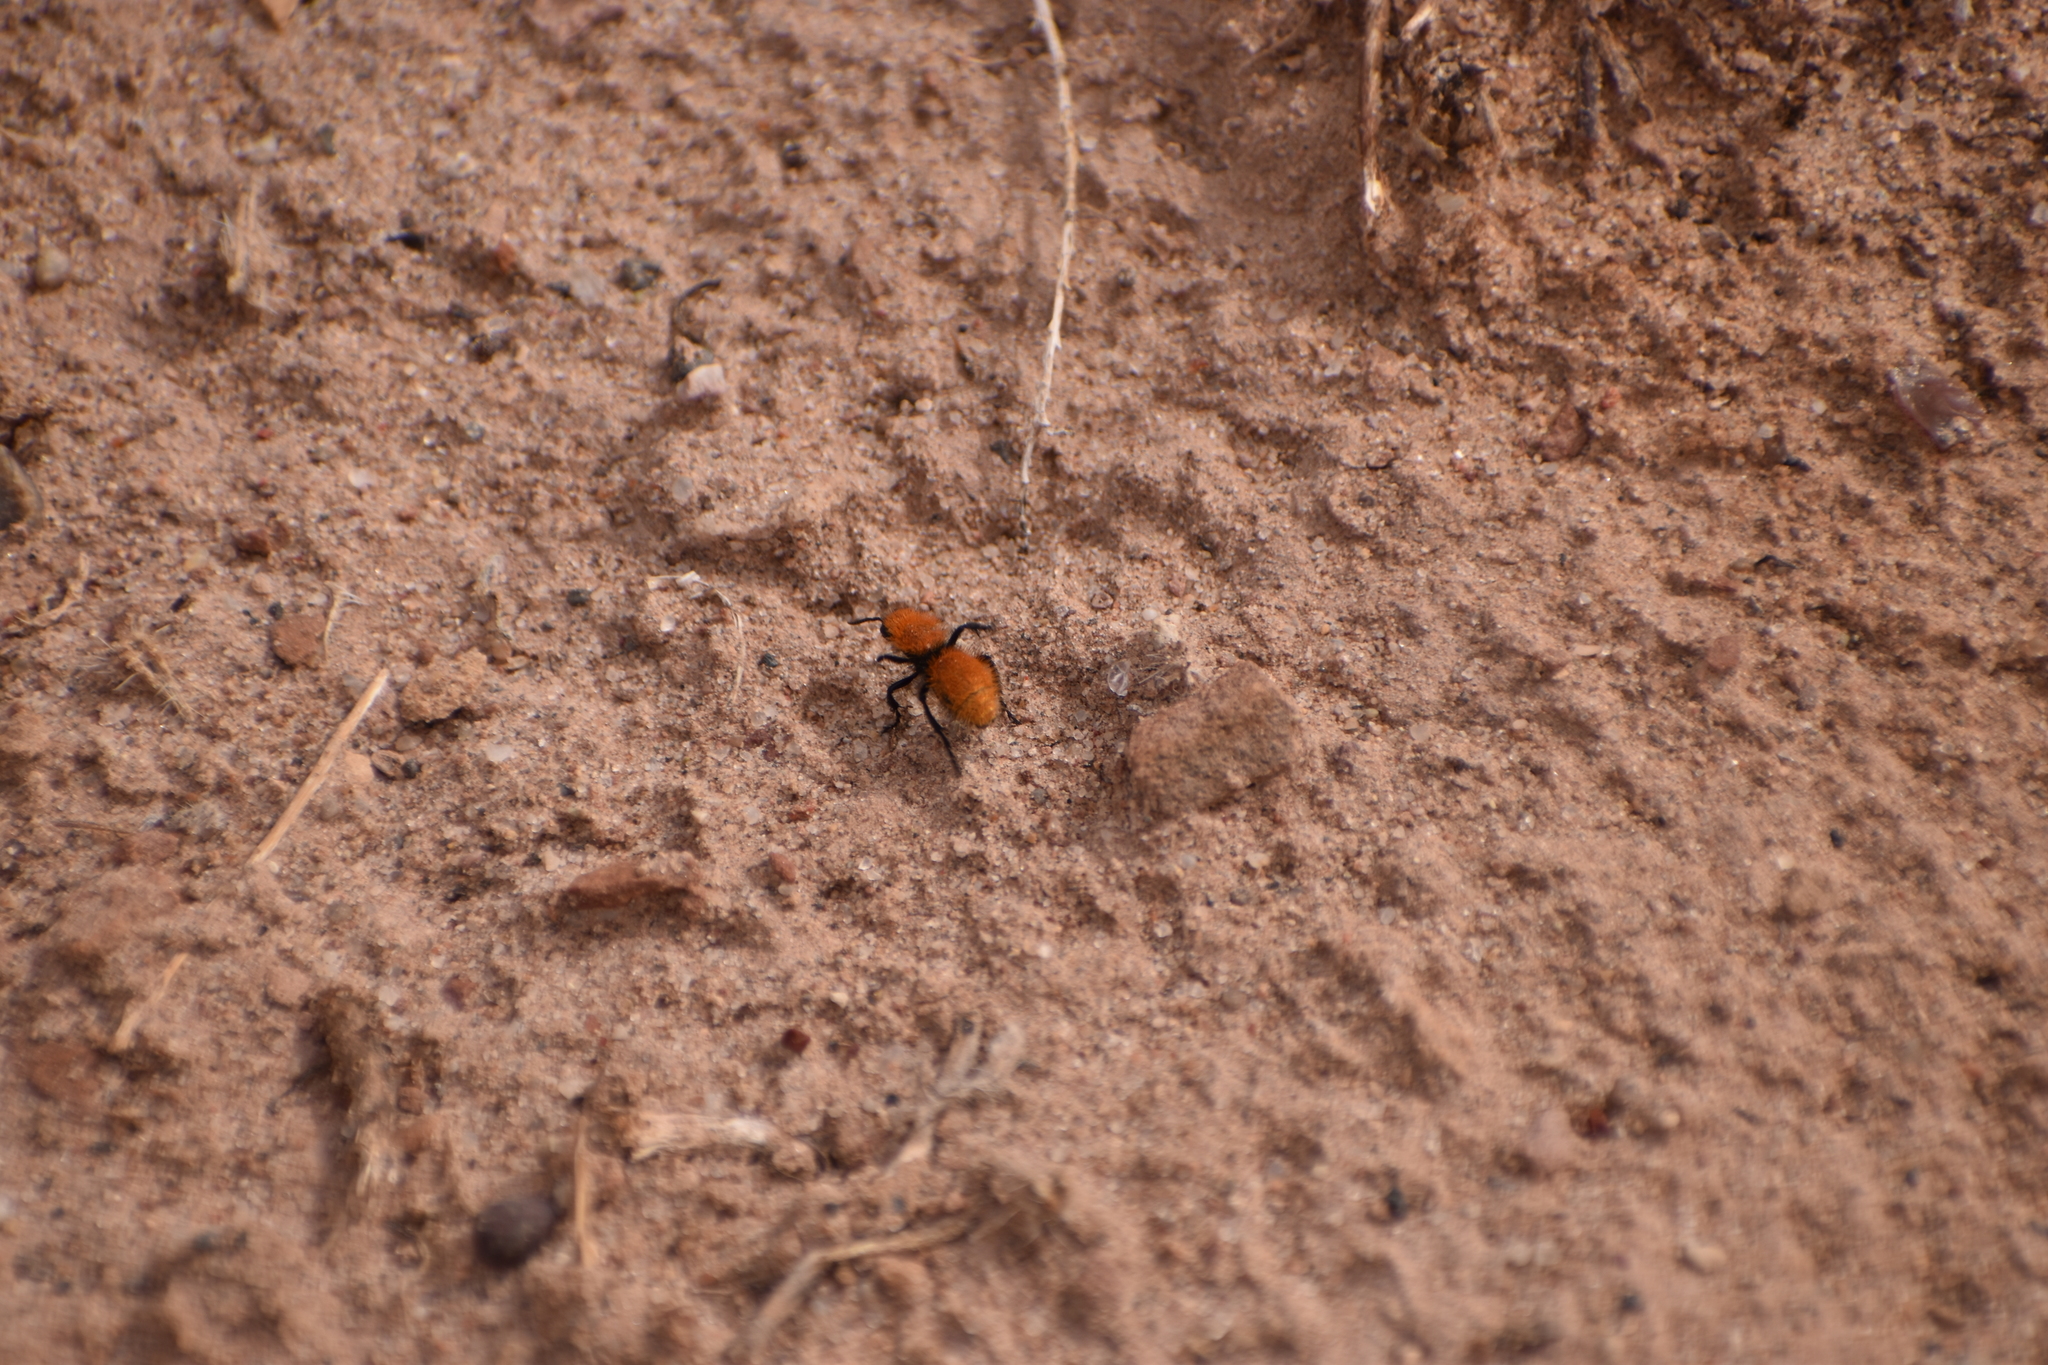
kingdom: Animalia
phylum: Arthropoda
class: Insecta
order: Hymenoptera
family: Mutillidae
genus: Dasymutilla
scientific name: Dasymutilla vestita
